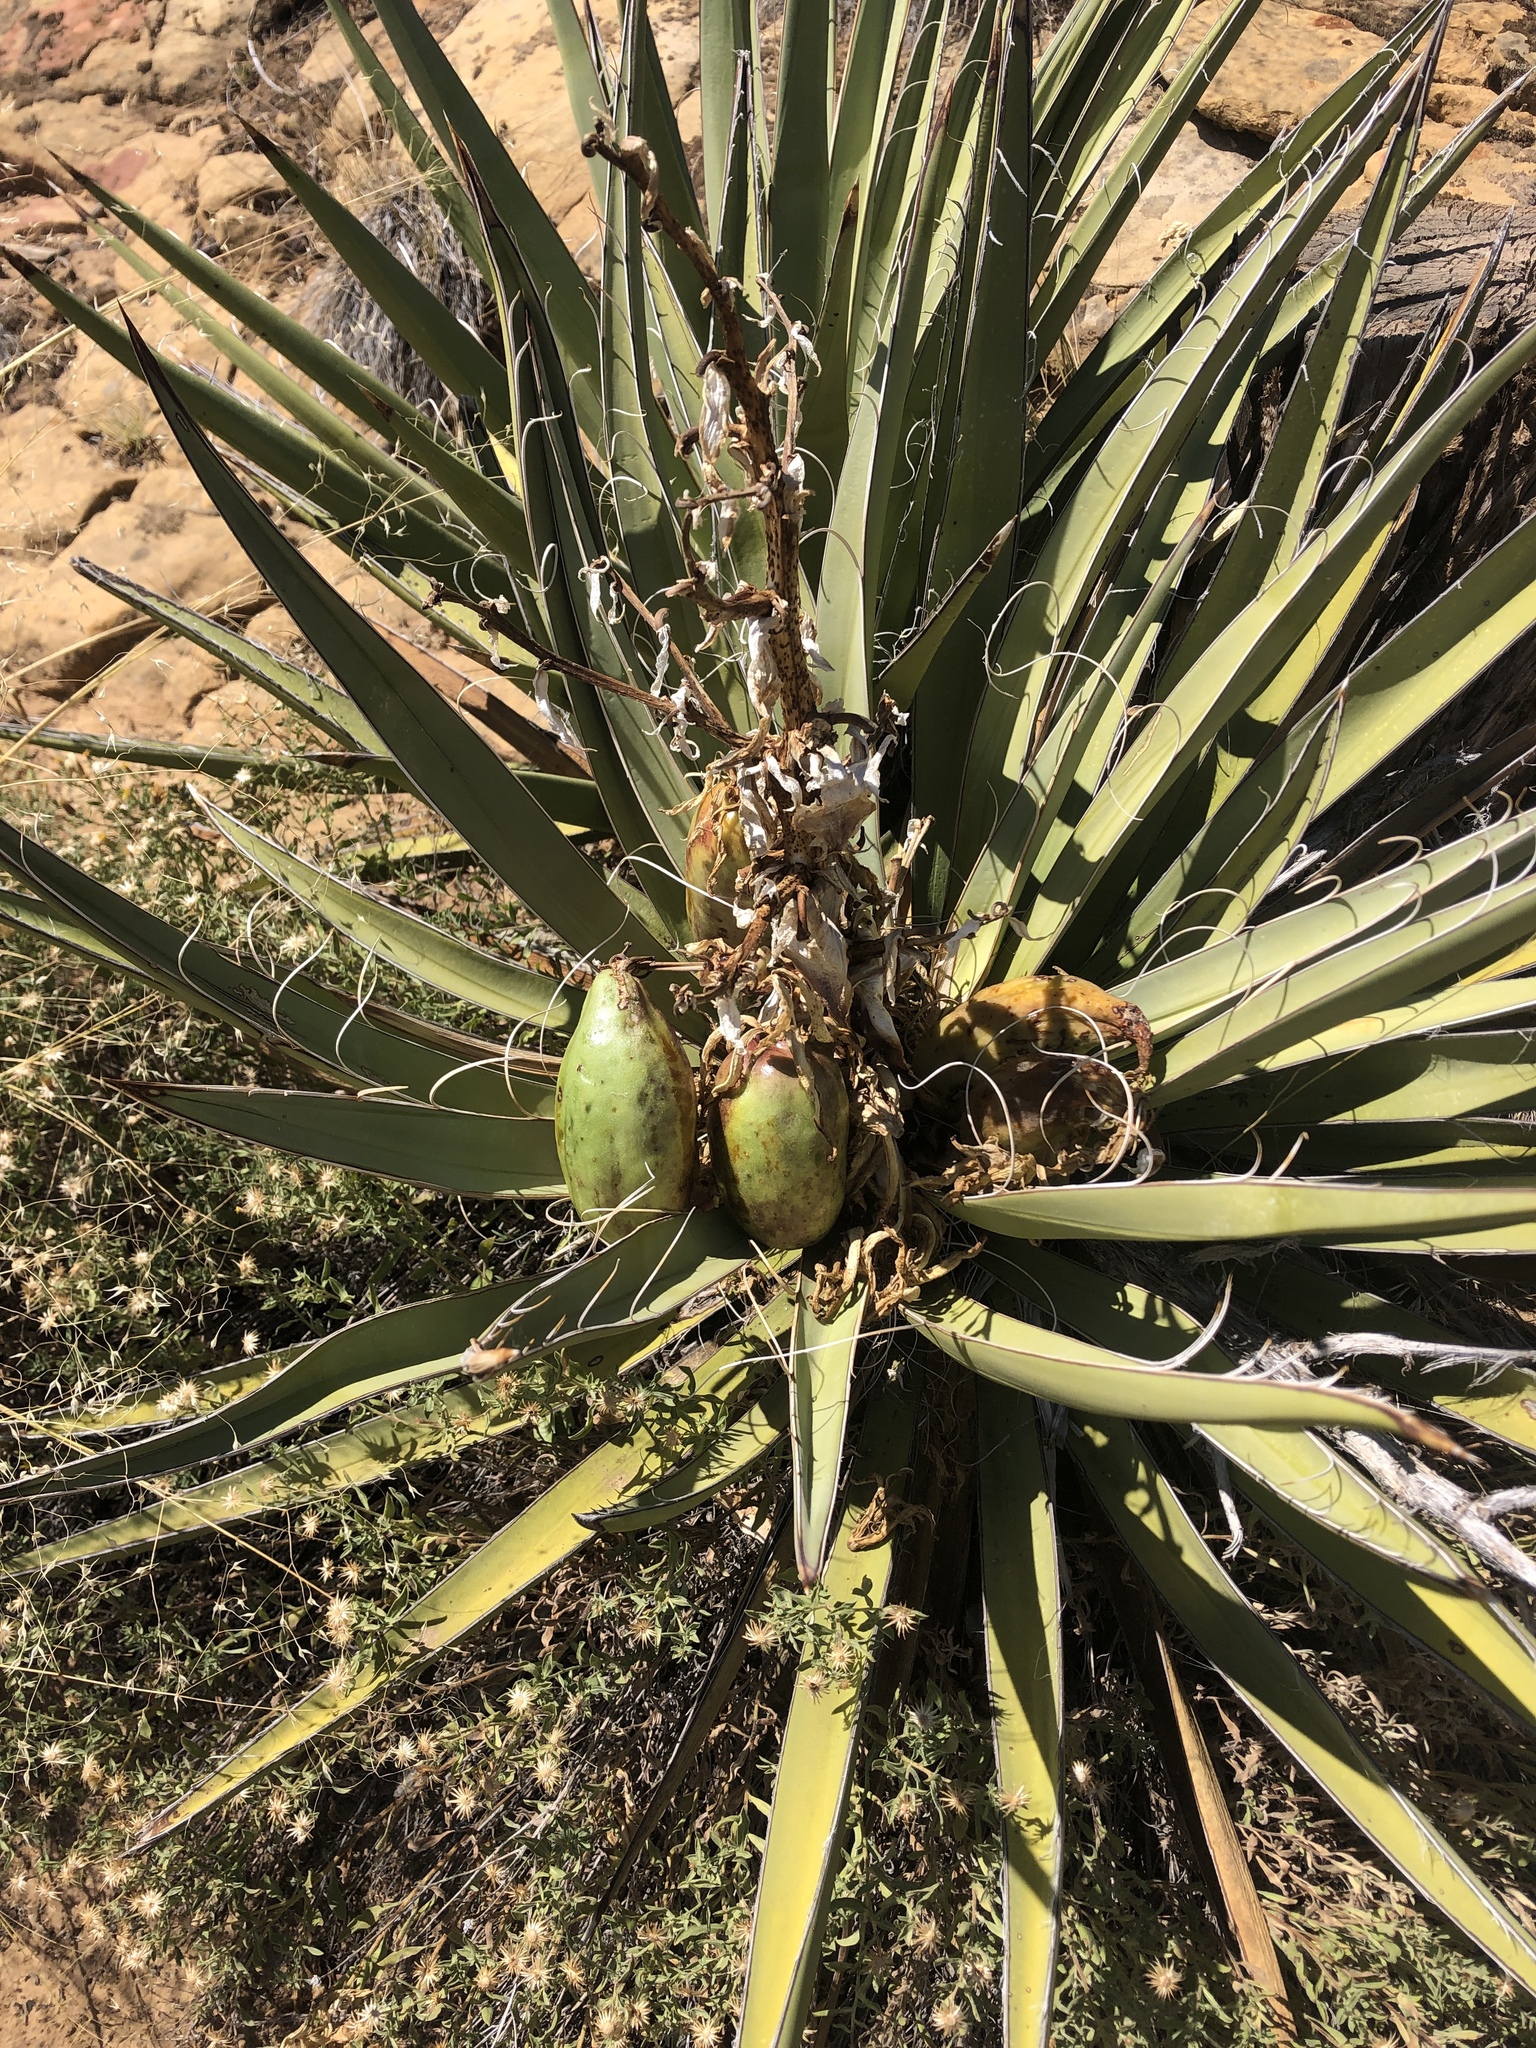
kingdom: Plantae
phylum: Tracheophyta
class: Liliopsida
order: Asparagales
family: Asparagaceae
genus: Yucca
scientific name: Yucca baccata
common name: Banana yucca
